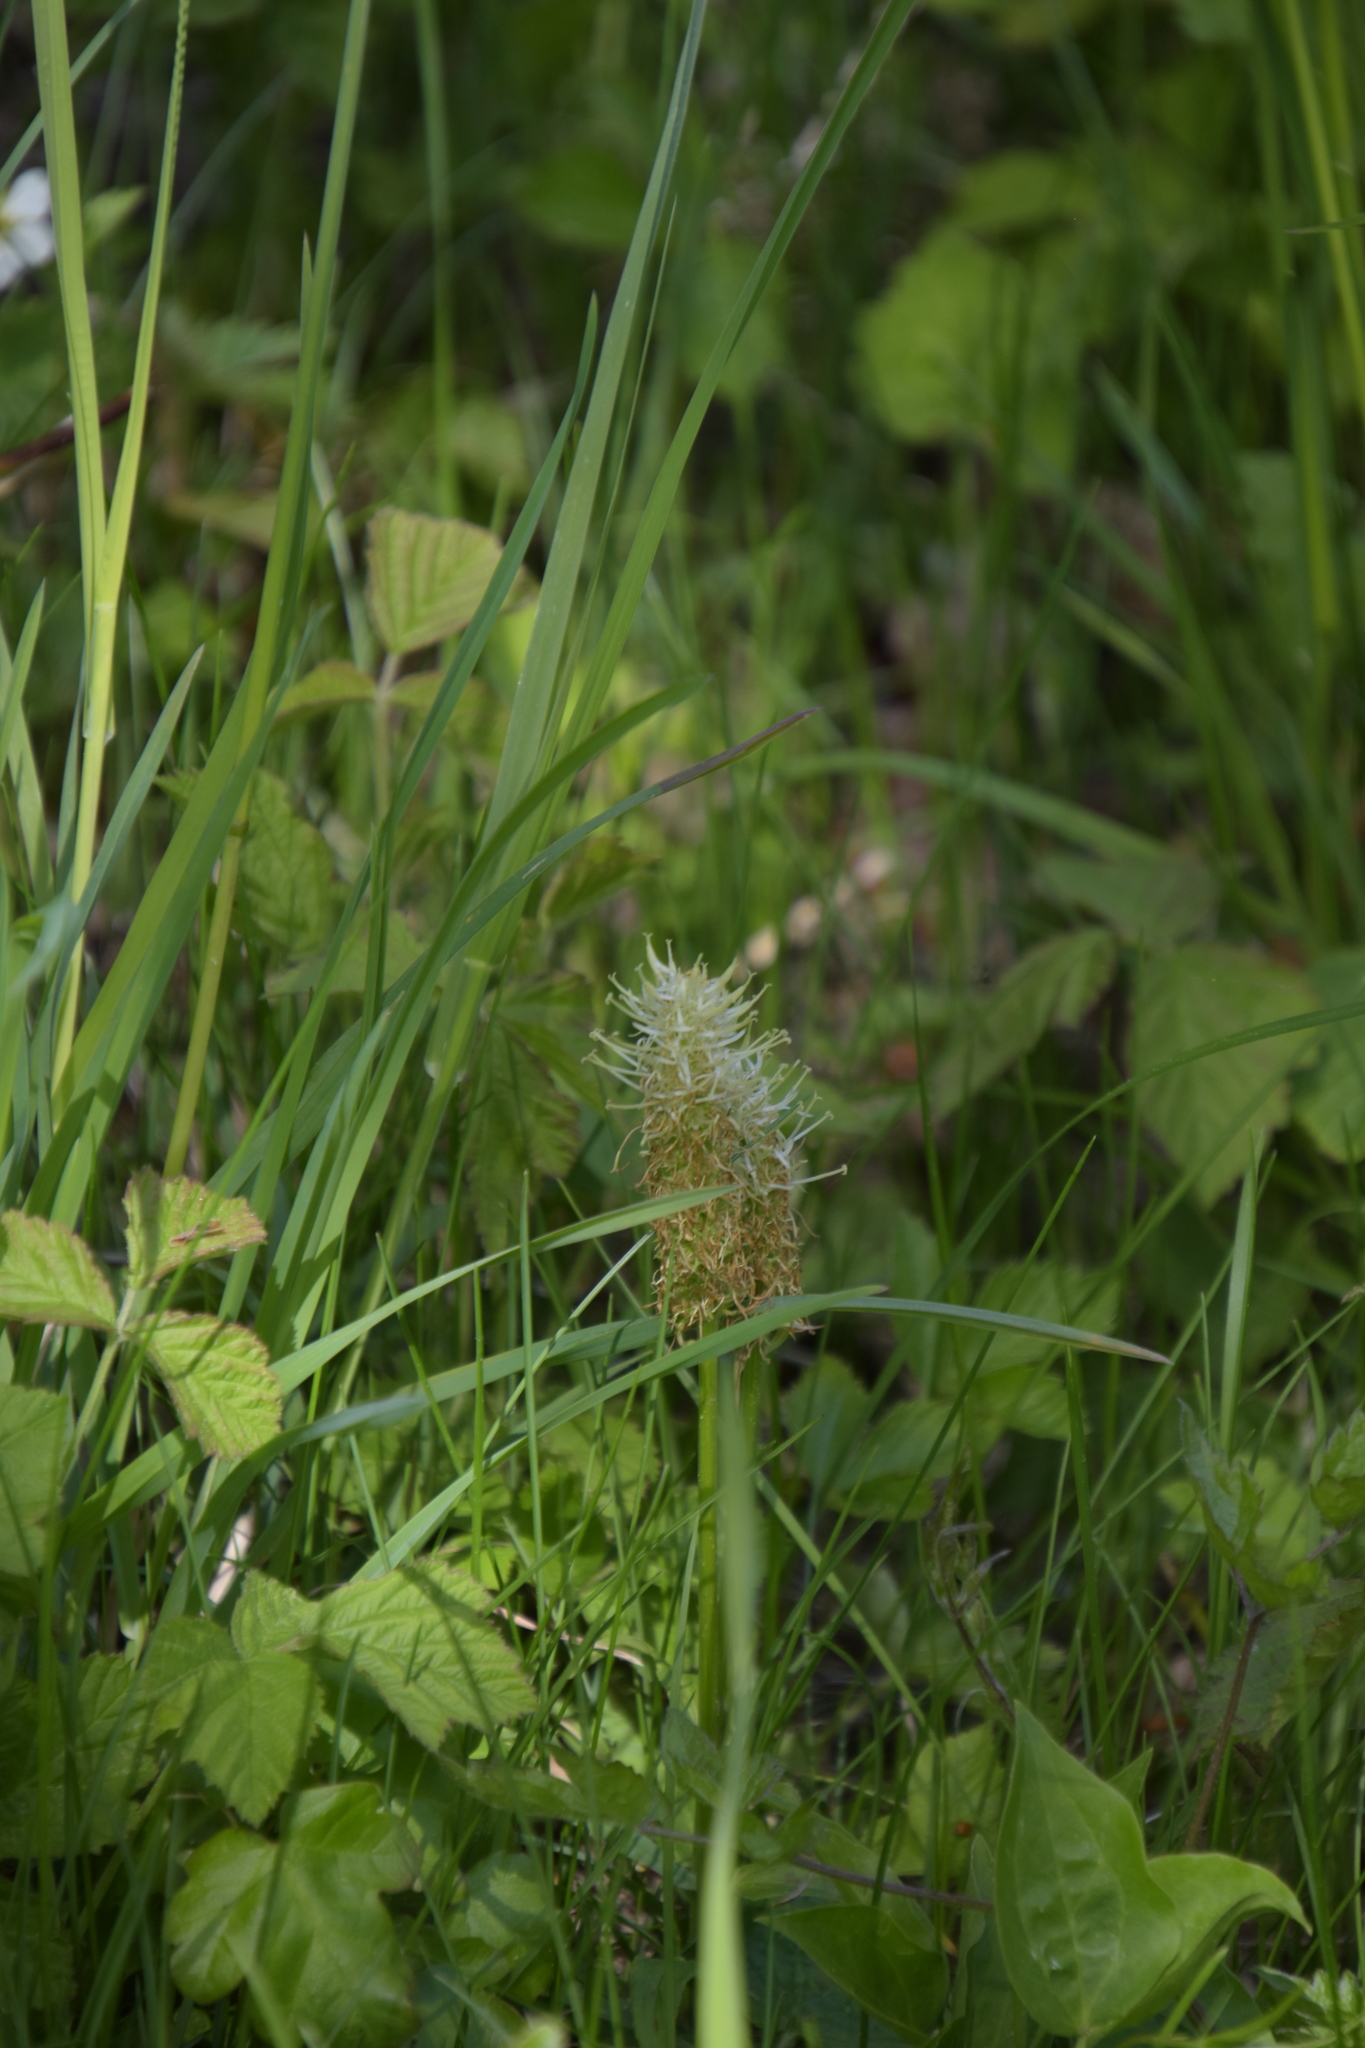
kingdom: Plantae
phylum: Tracheophyta
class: Magnoliopsida
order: Asterales
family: Campanulaceae
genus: Phyteuma
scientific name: Phyteuma spicatum
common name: Spiked rampion
